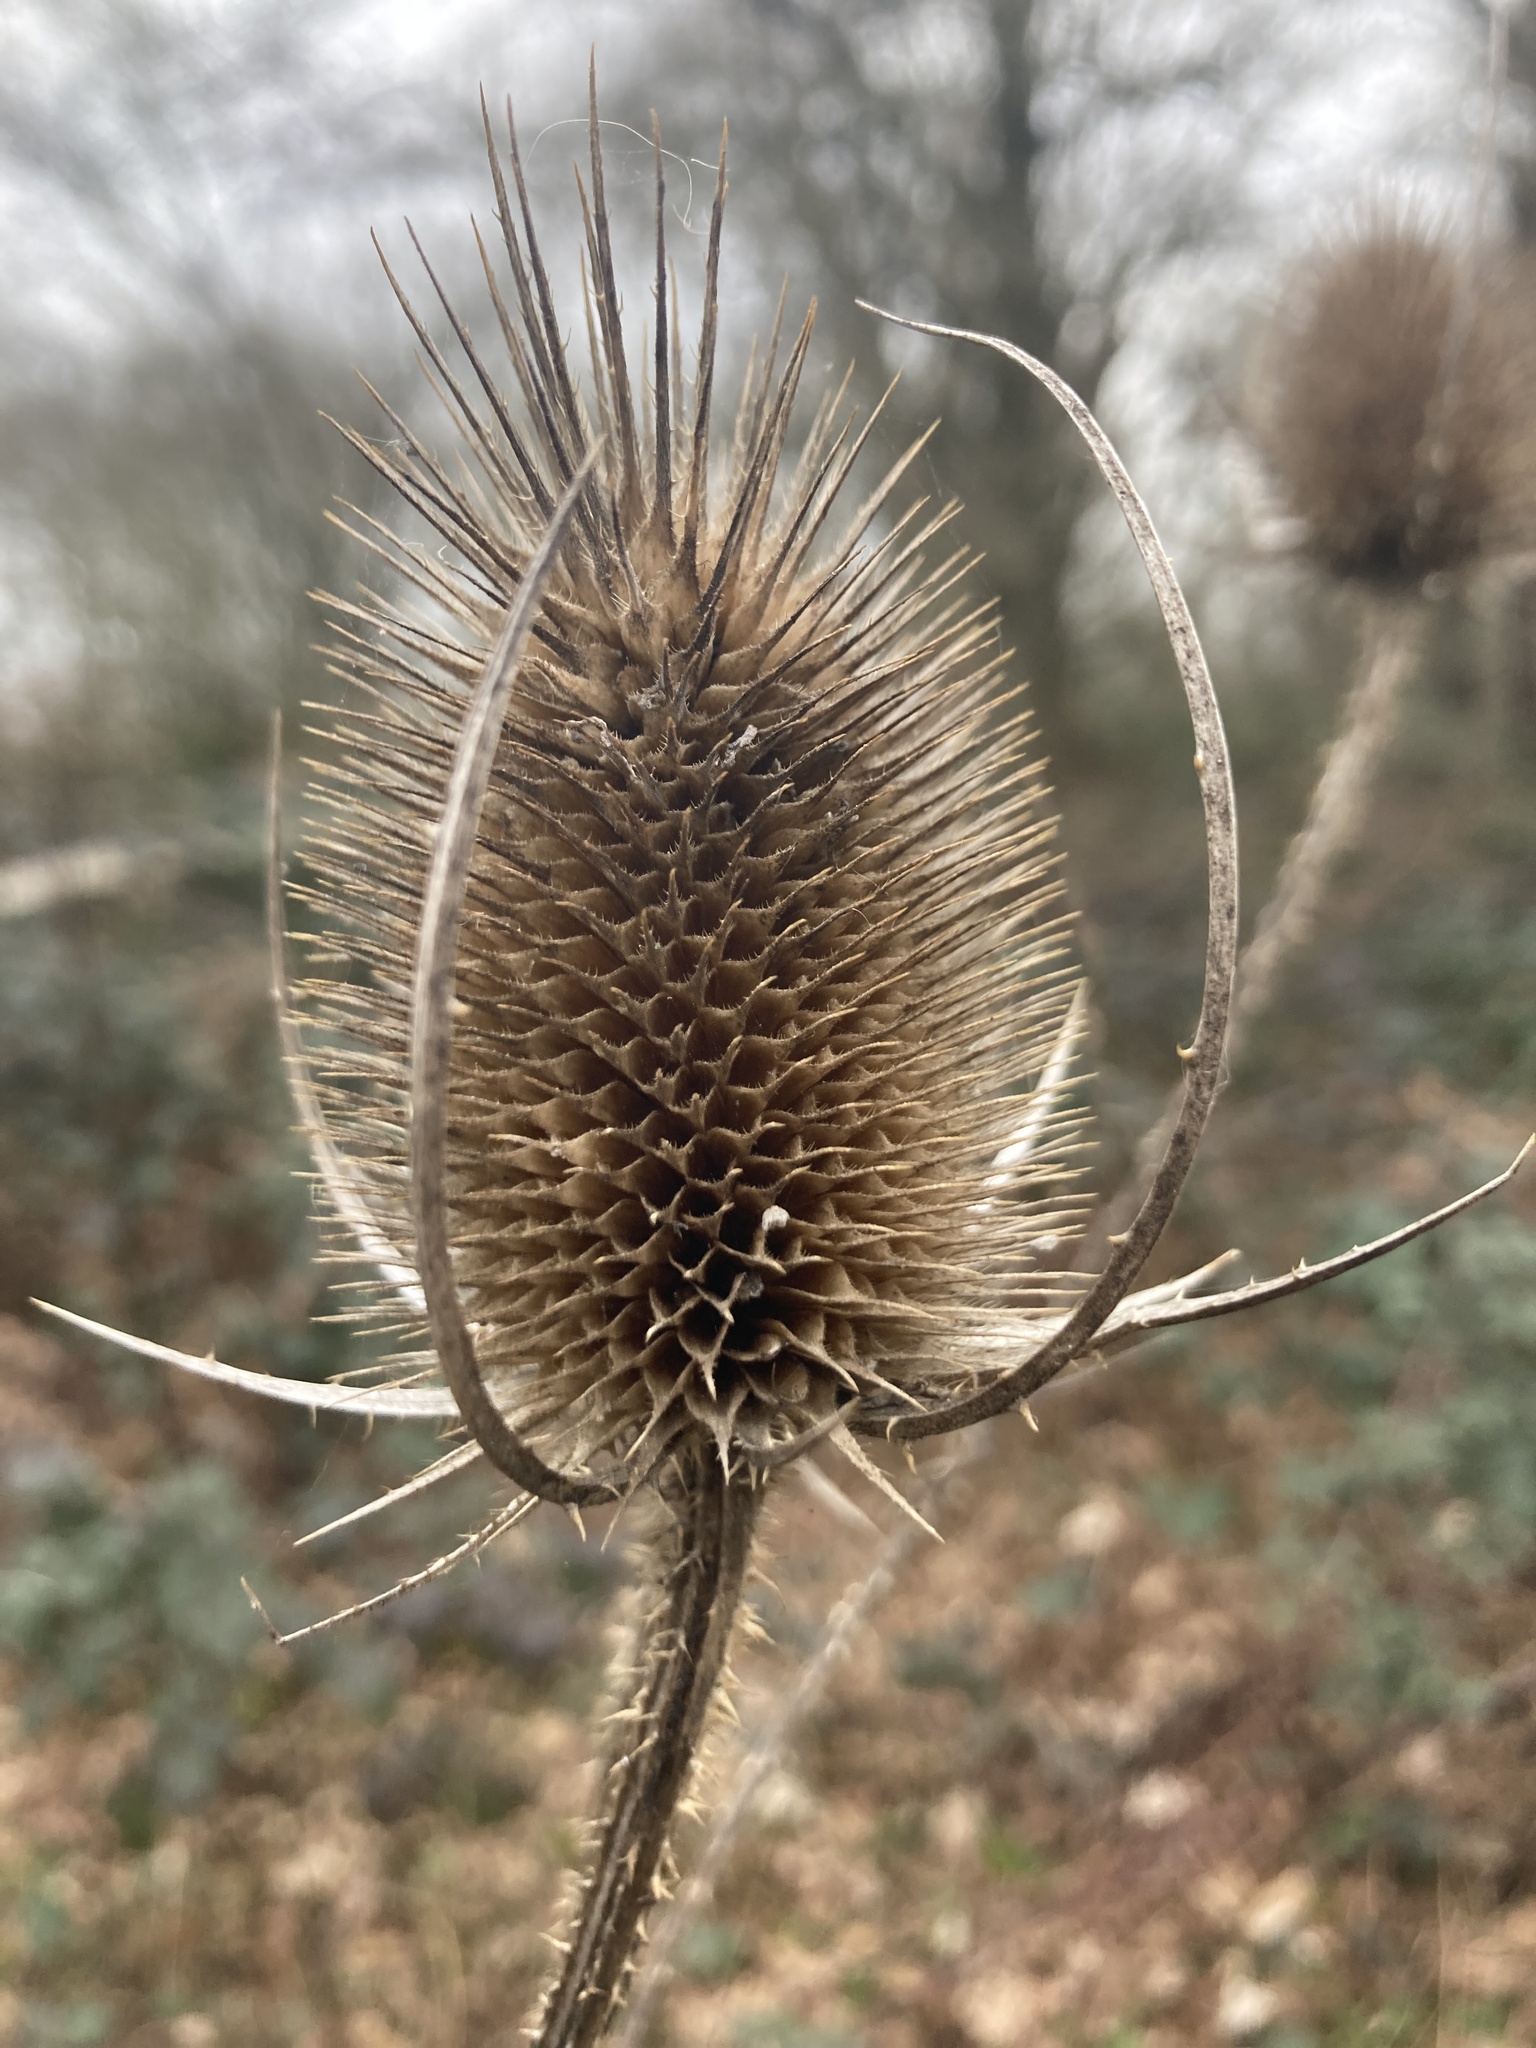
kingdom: Plantae
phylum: Tracheophyta
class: Magnoliopsida
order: Dipsacales
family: Caprifoliaceae
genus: Dipsacus
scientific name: Dipsacus fullonum
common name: Teasel
